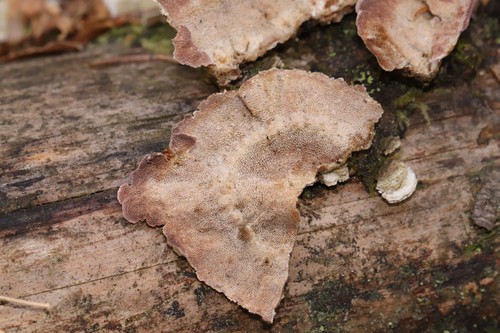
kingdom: Fungi
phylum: Basidiomycota
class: Agaricomycetes
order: Hymenochaetales
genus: Trichaptum
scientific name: Trichaptum abietinum
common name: Purplepore bracket
